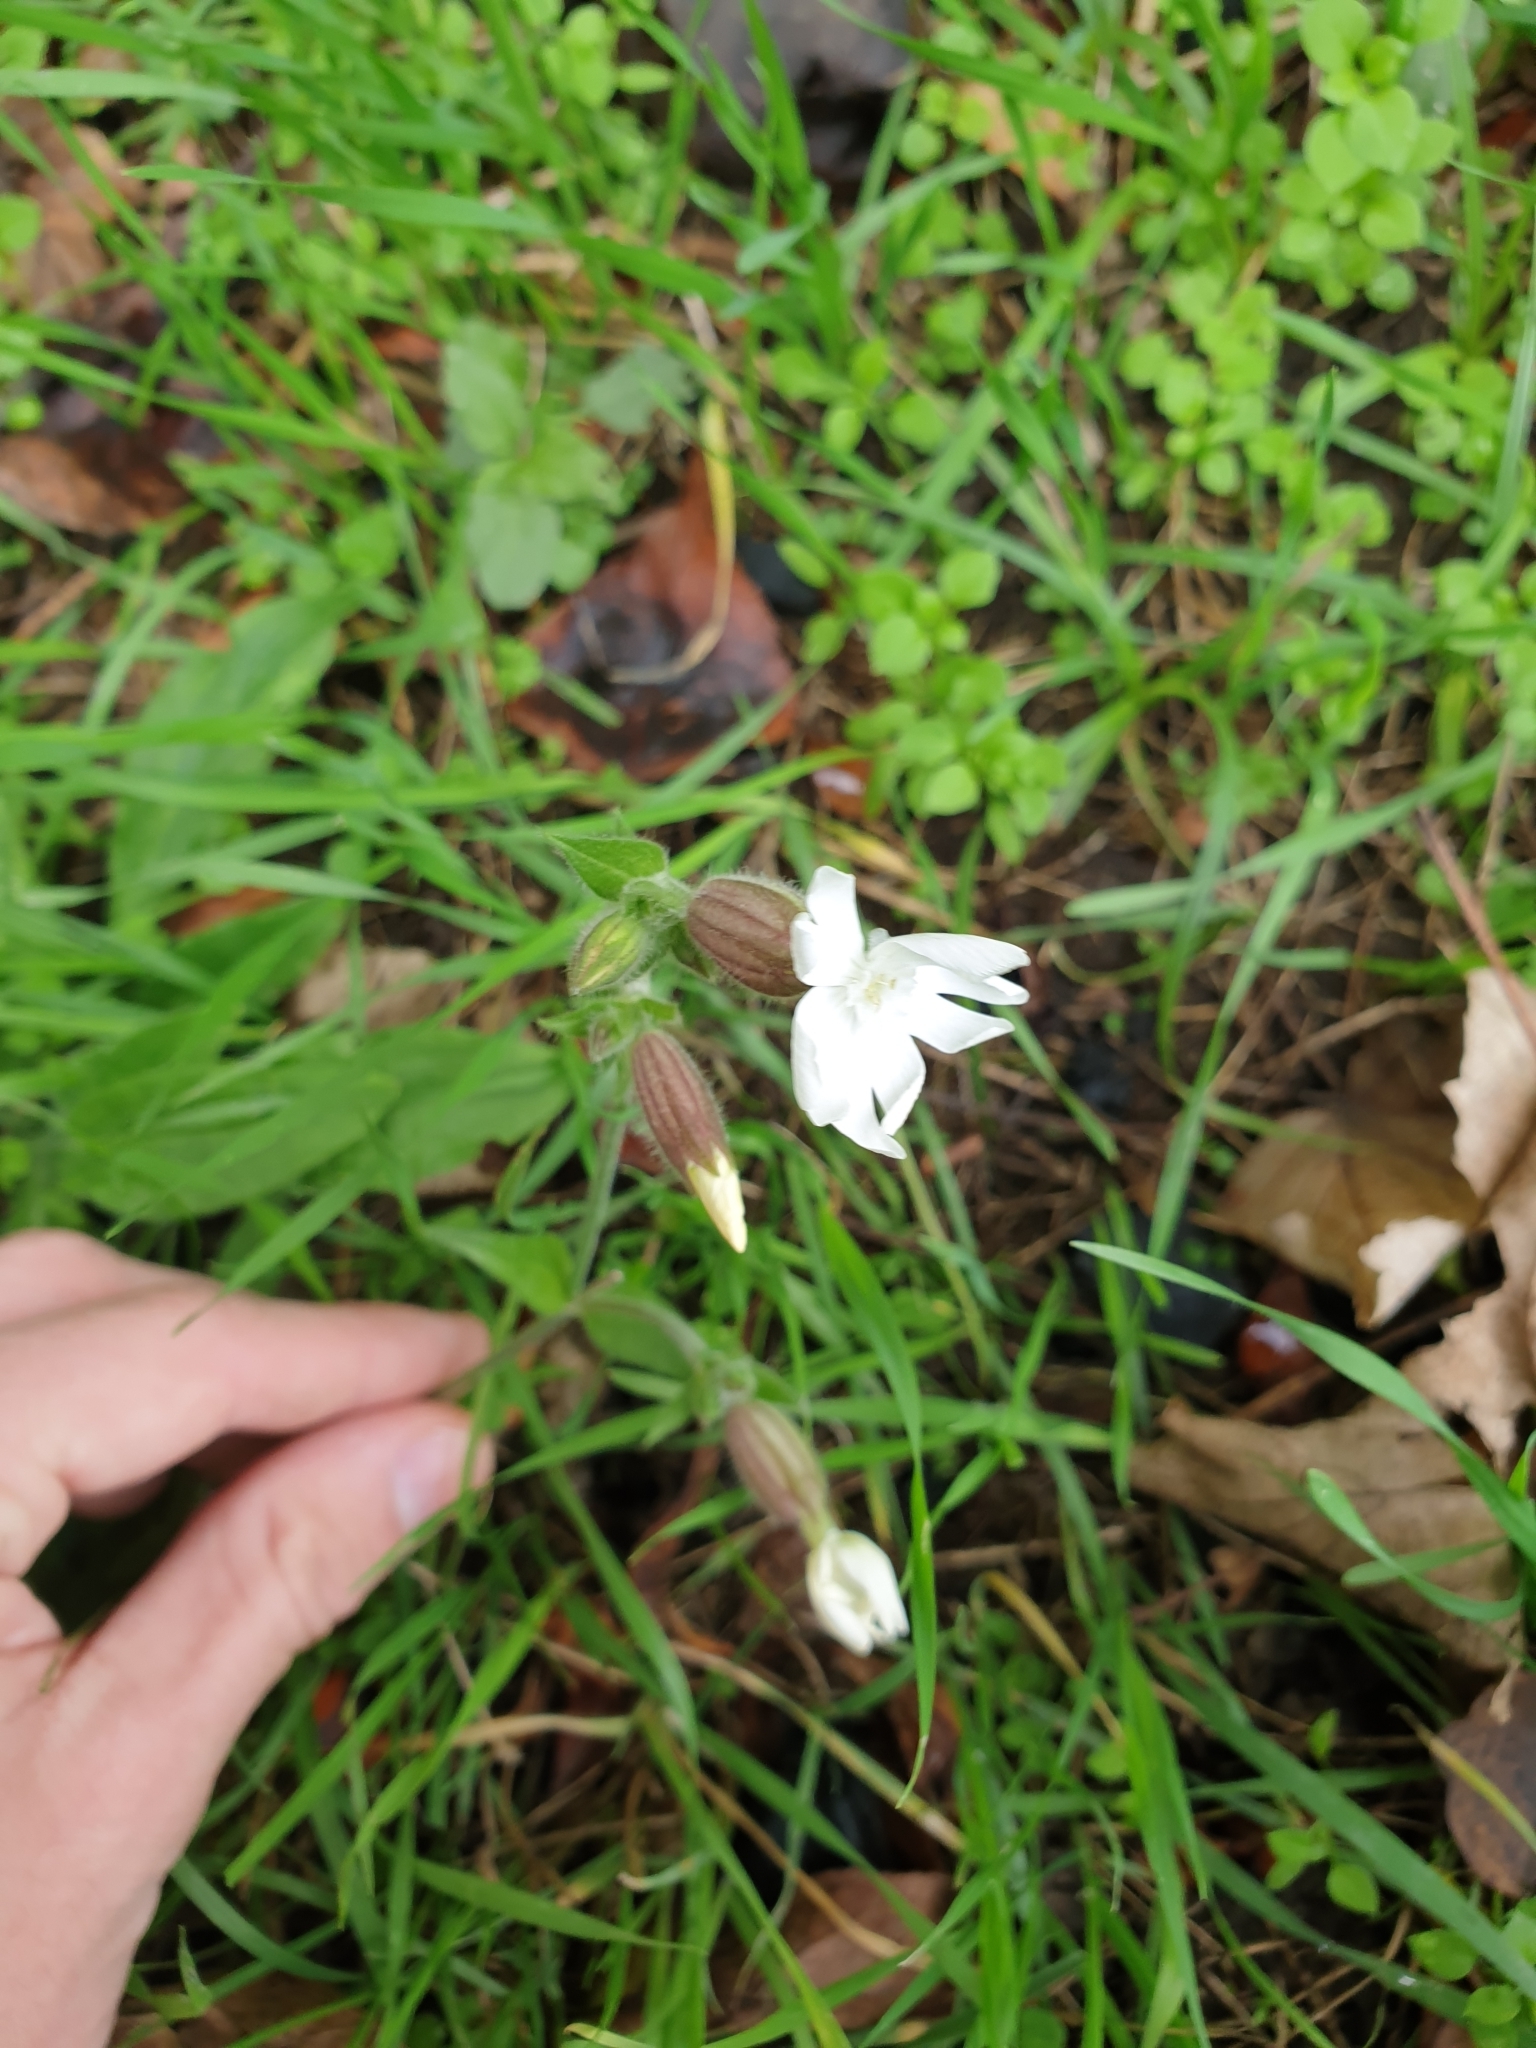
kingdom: Plantae
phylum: Tracheophyta
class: Magnoliopsida
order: Caryophyllales
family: Caryophyllaceae
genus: Silene
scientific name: Silene latifolia
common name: White campion
